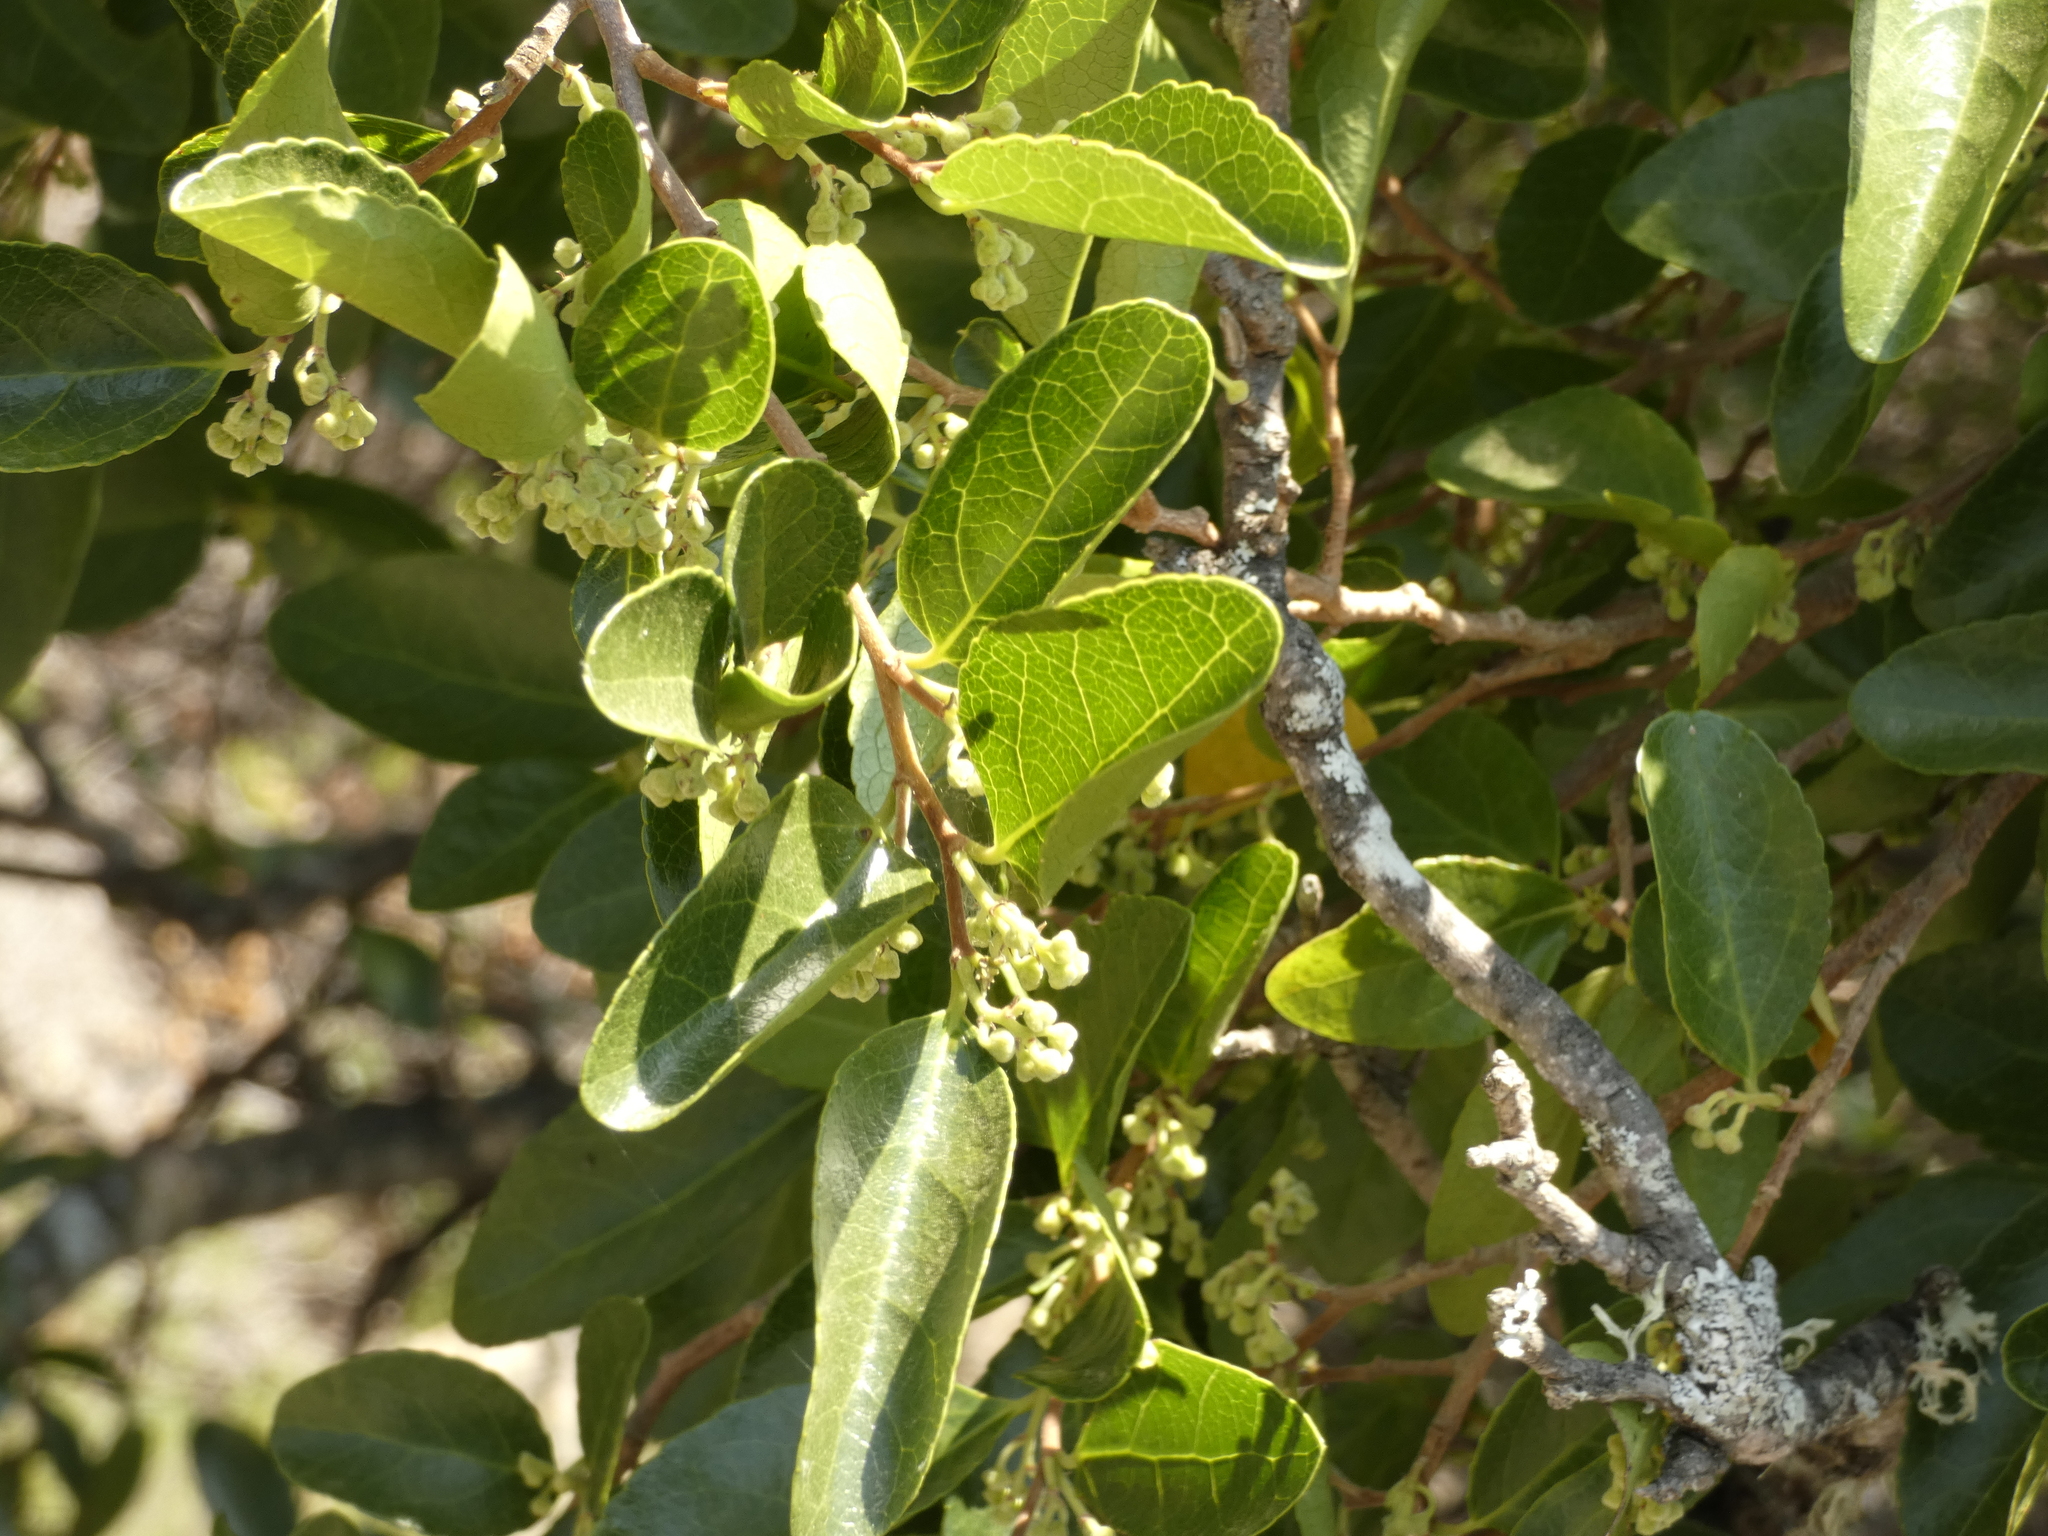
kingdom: Plantae
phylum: Tracheophyta
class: Magnoliopsida
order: Malpighiales
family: Salicaceae
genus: Azara
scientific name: Azara celastrina
